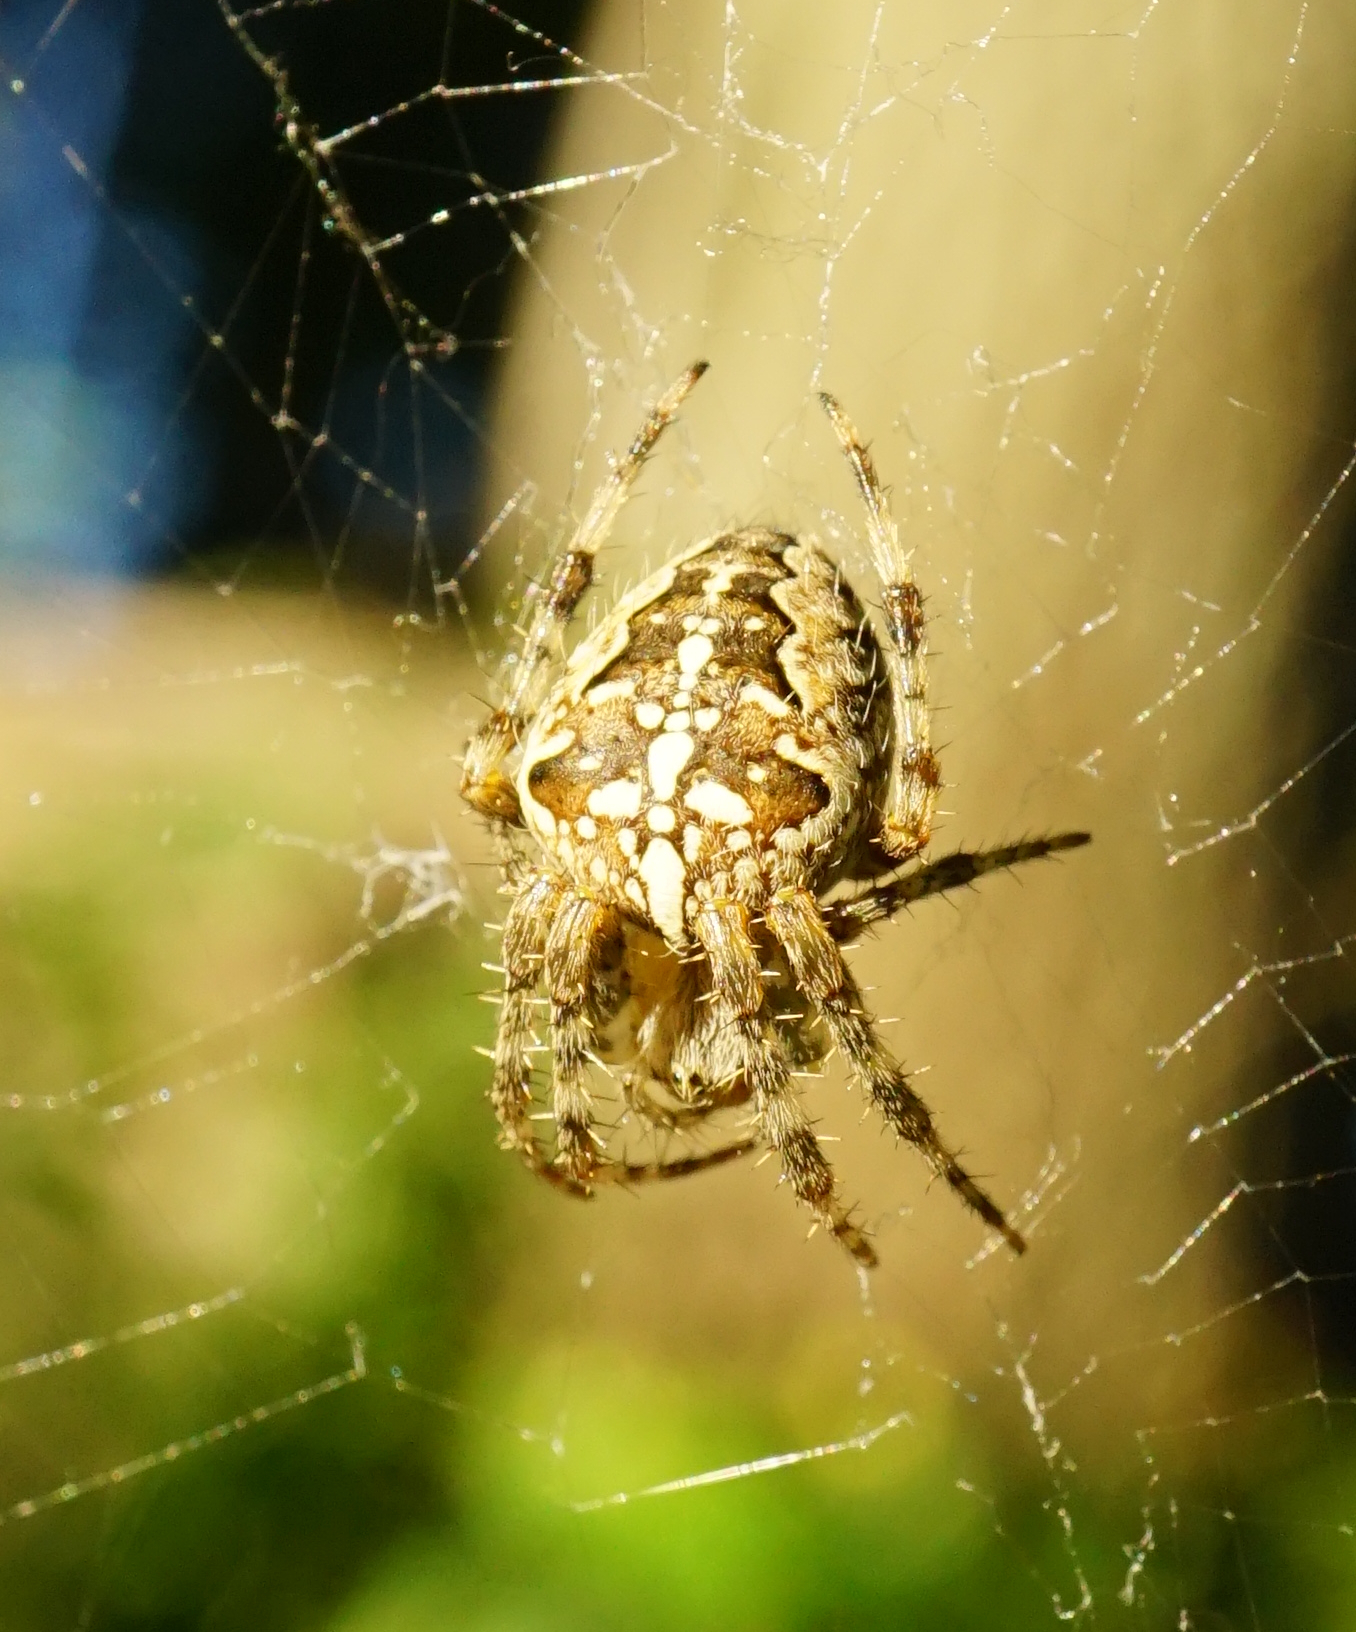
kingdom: Animalia
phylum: Arthropoda
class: Arachnida
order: Araneae
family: Araneidae
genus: Araneus
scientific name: Araneus diadematus
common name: Cross orbweaver
